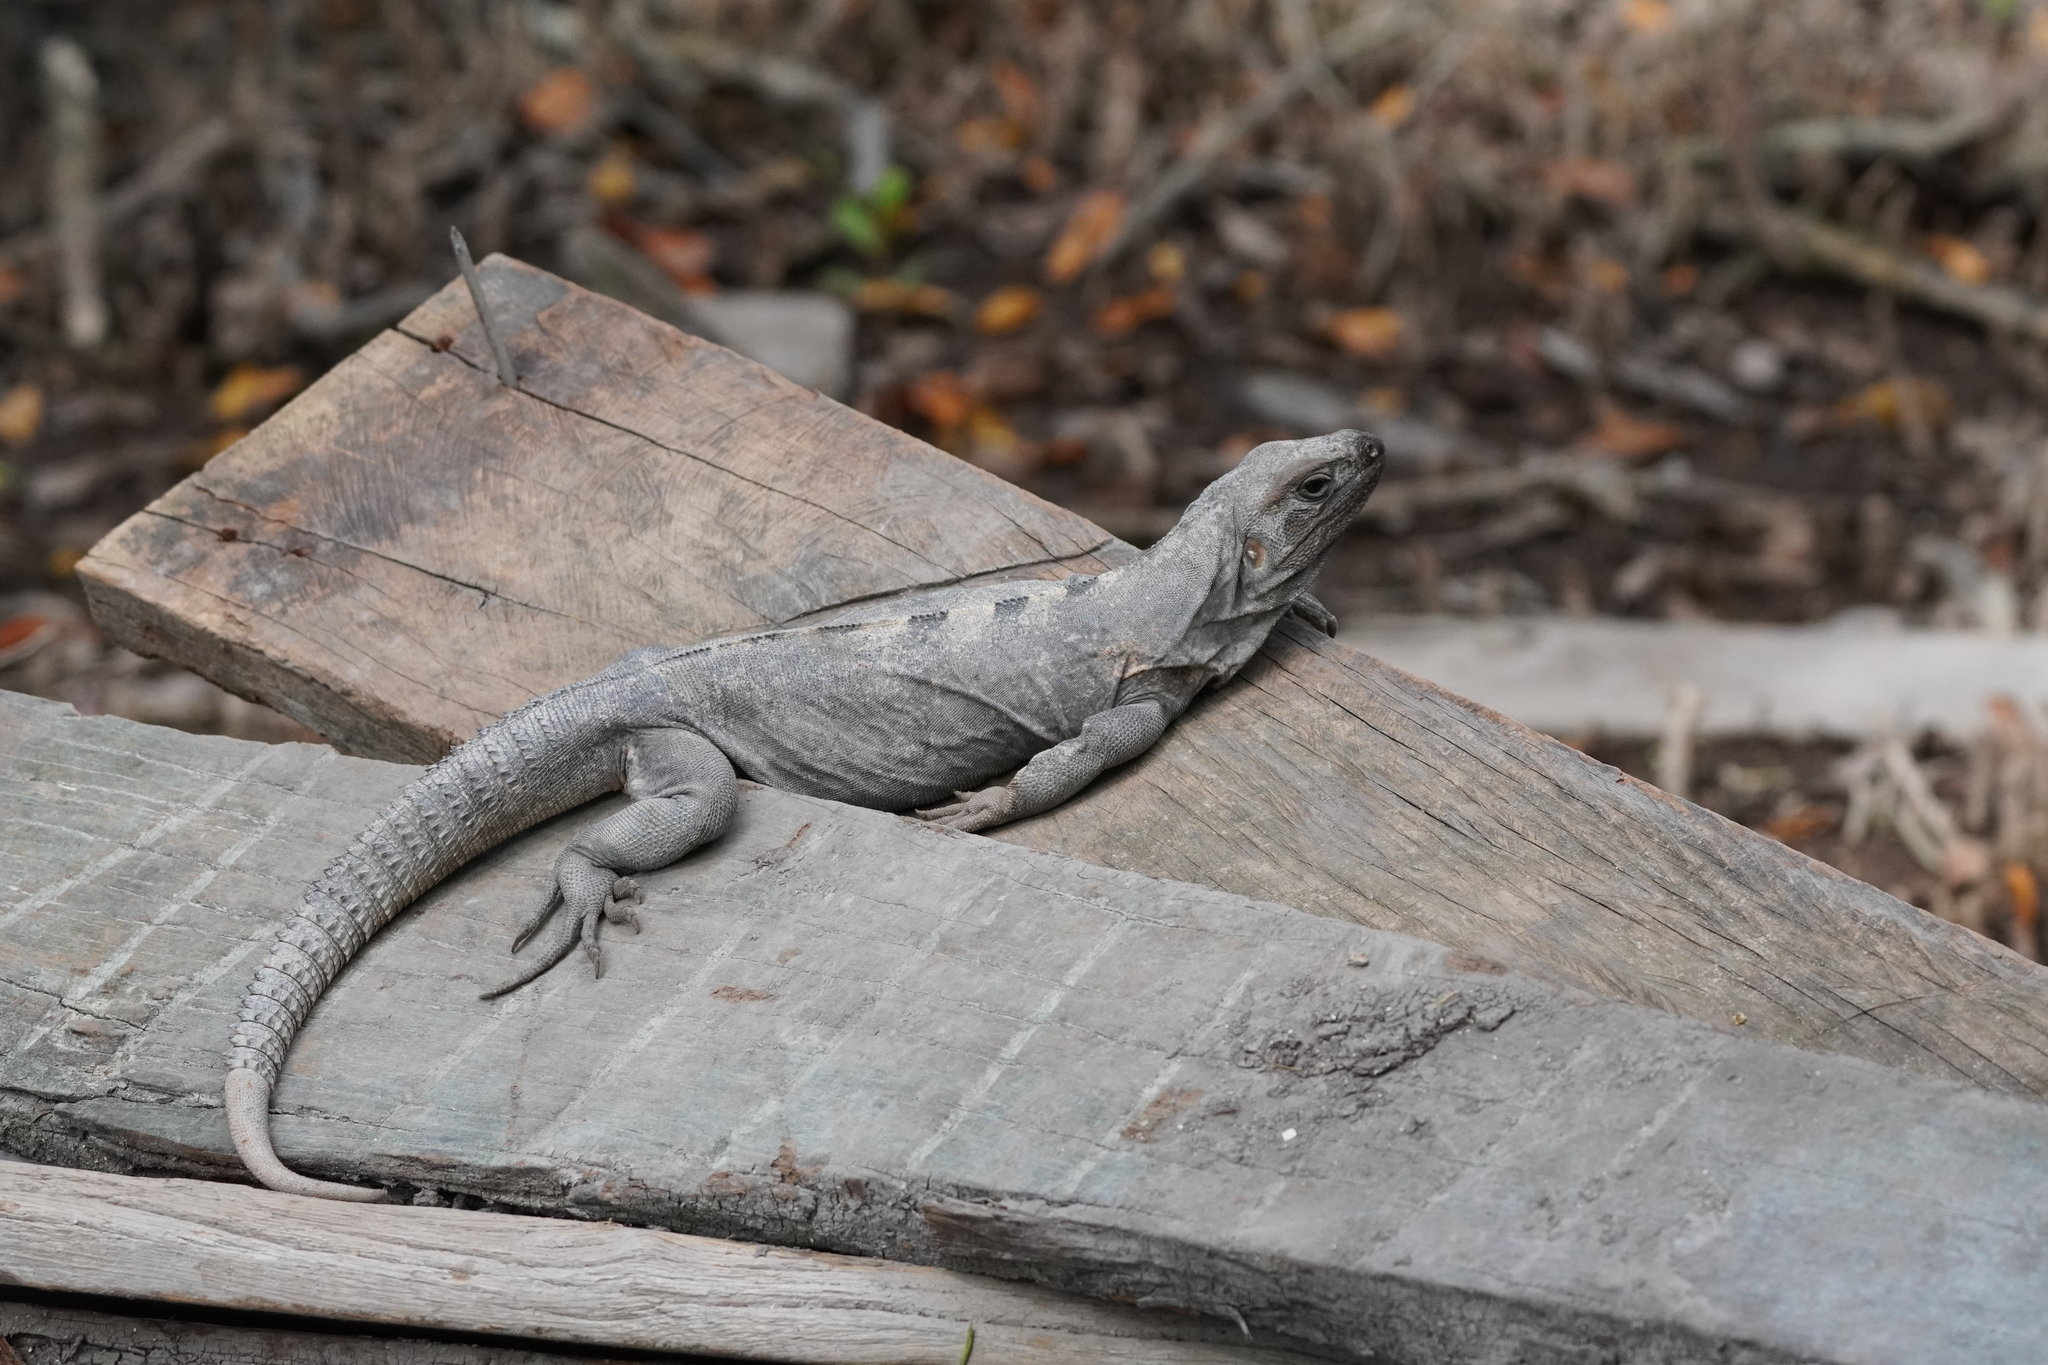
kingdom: Animalia
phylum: Chordata
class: Squamata
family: Iguanidae
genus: Ctenosaura
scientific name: Ctenosaura similis
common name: Black spiny-tailed iguana
